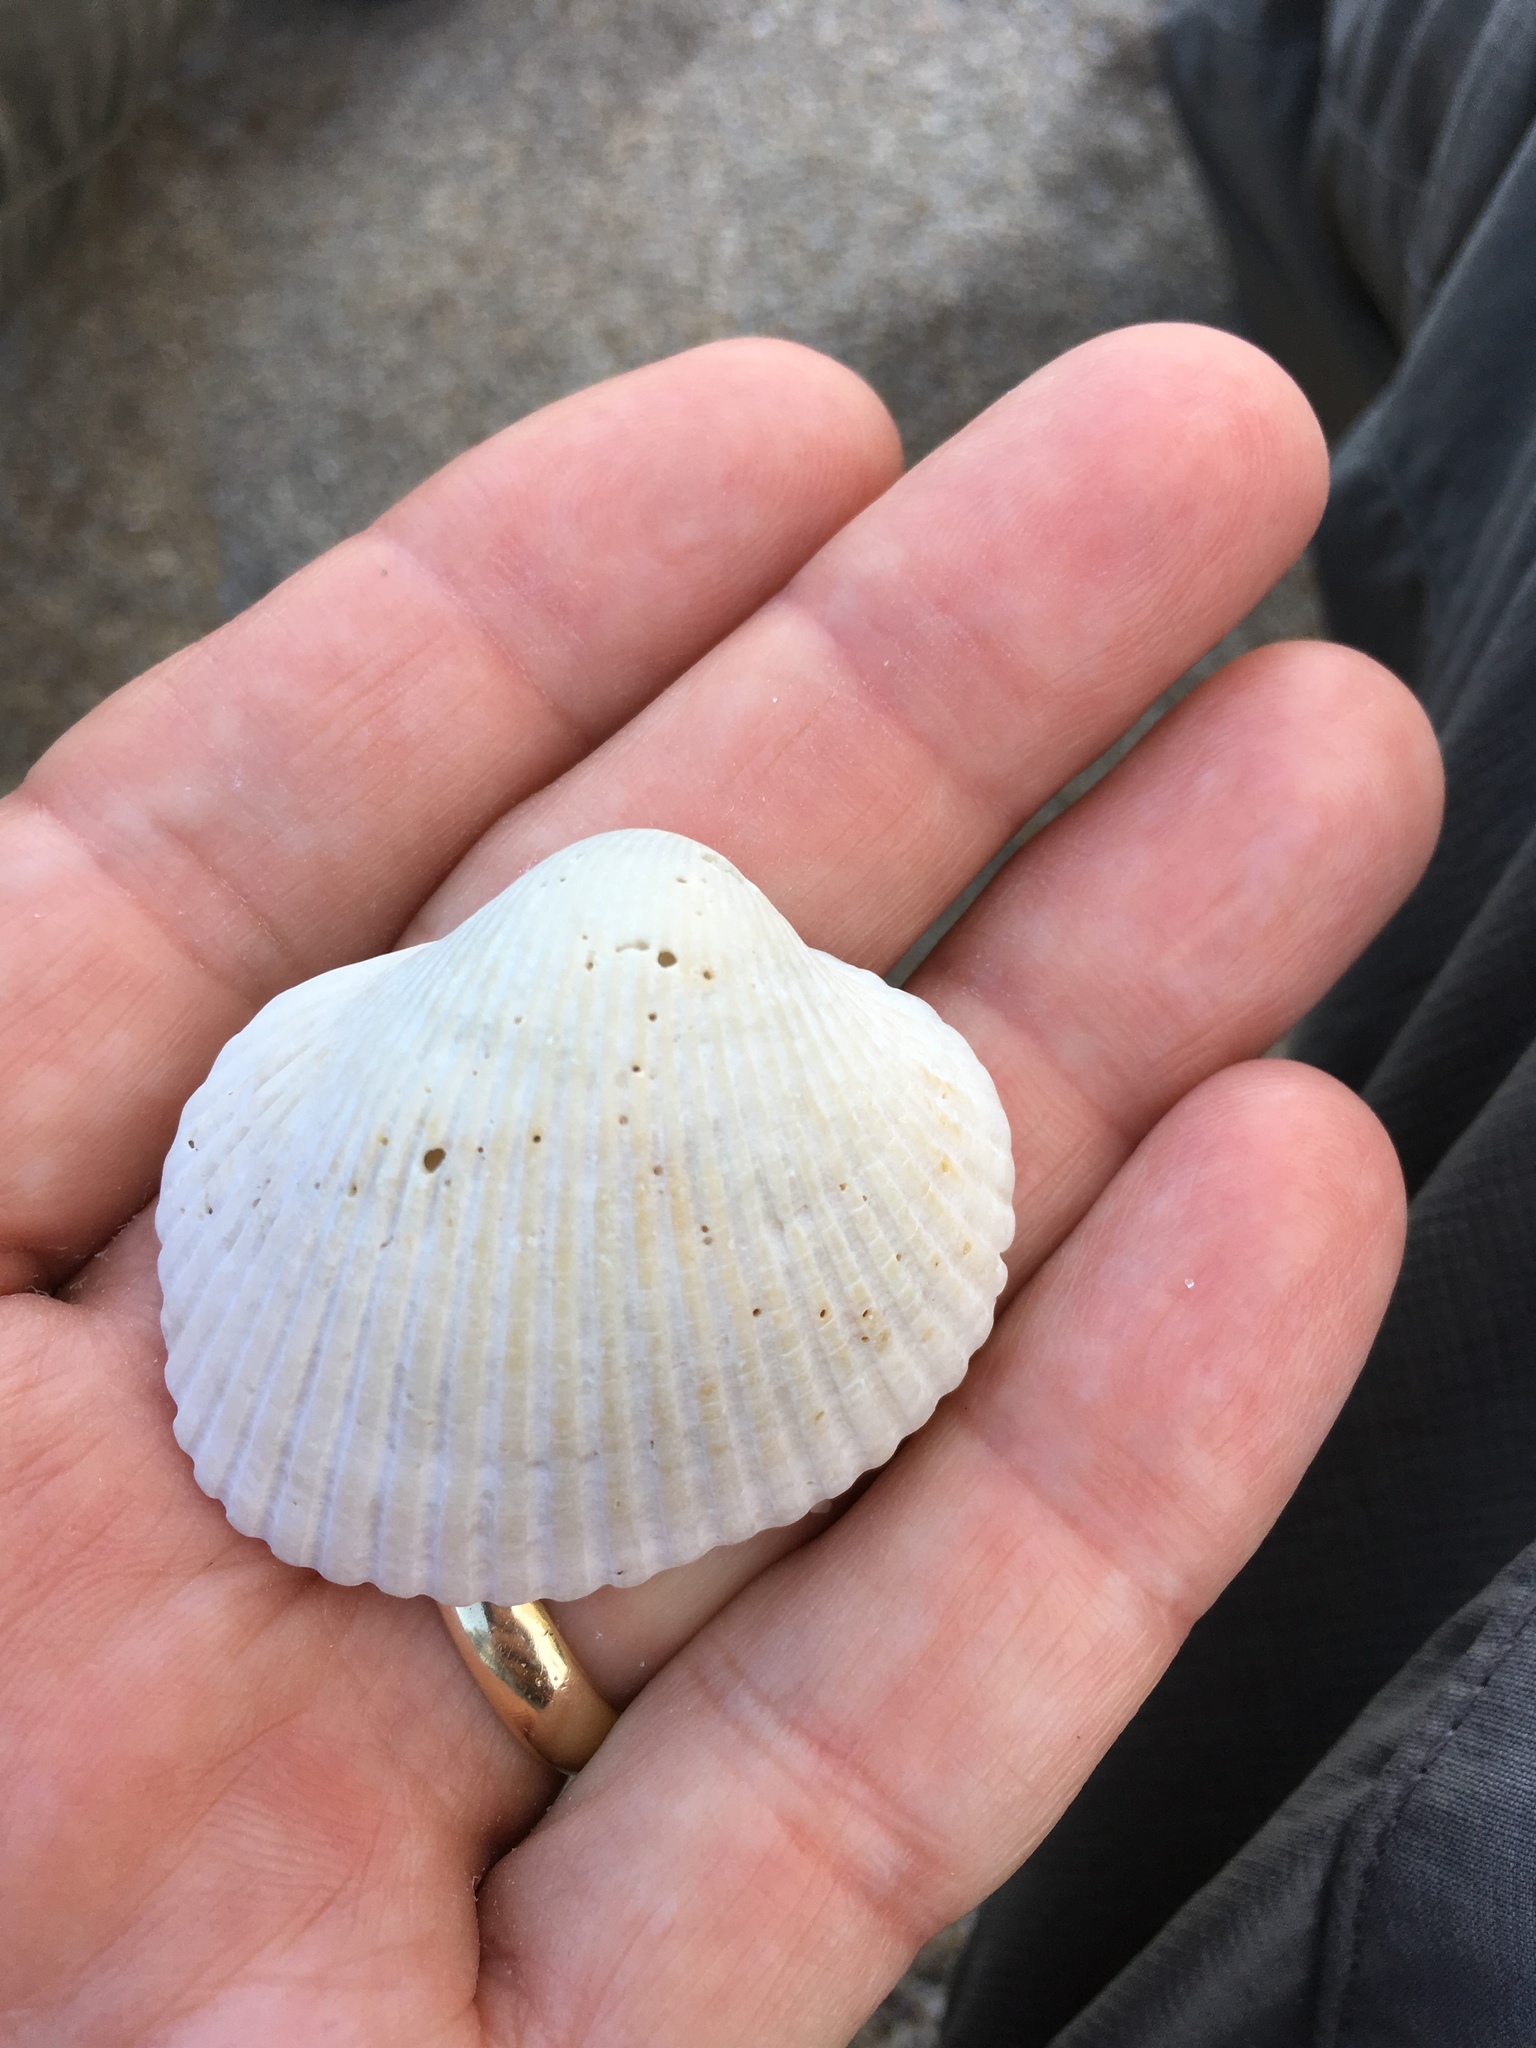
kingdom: Animalia
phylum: Mollusca
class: Bivalvia
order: Arcida
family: Arcidae
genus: Lunarca
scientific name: Lunarca ovalis
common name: Blood ark
